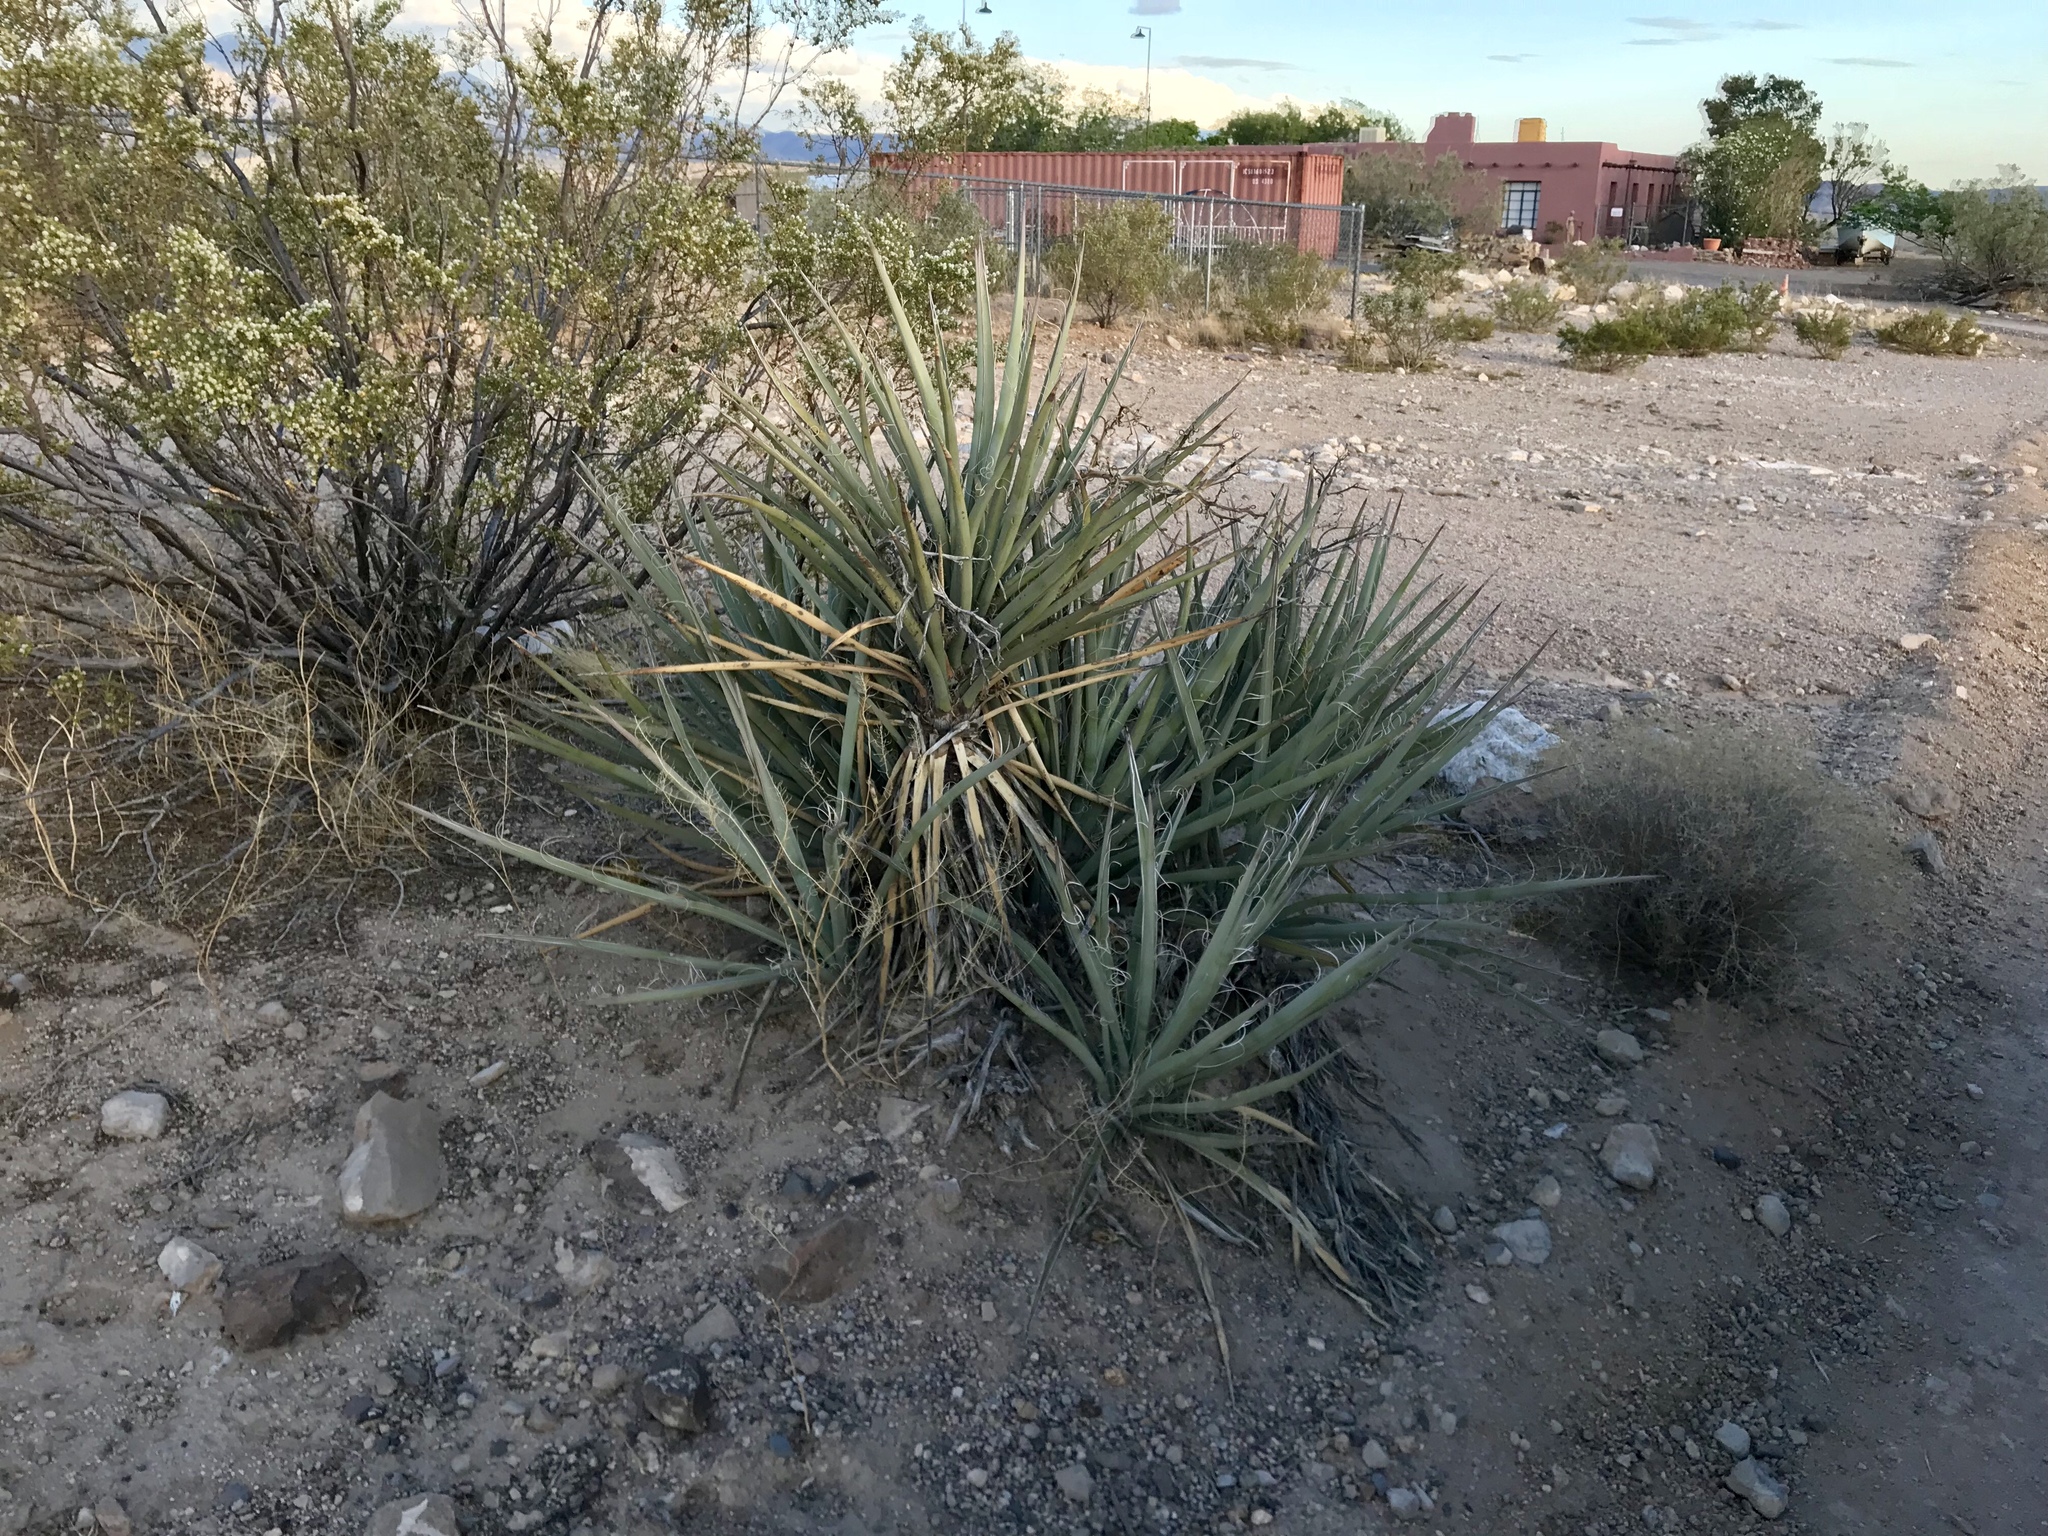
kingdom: Plantae
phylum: Tracheophyta
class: Liliopsida
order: Asparagales
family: Asparagaceae
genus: Yucca
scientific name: Yucca baccata
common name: Banana yucca
